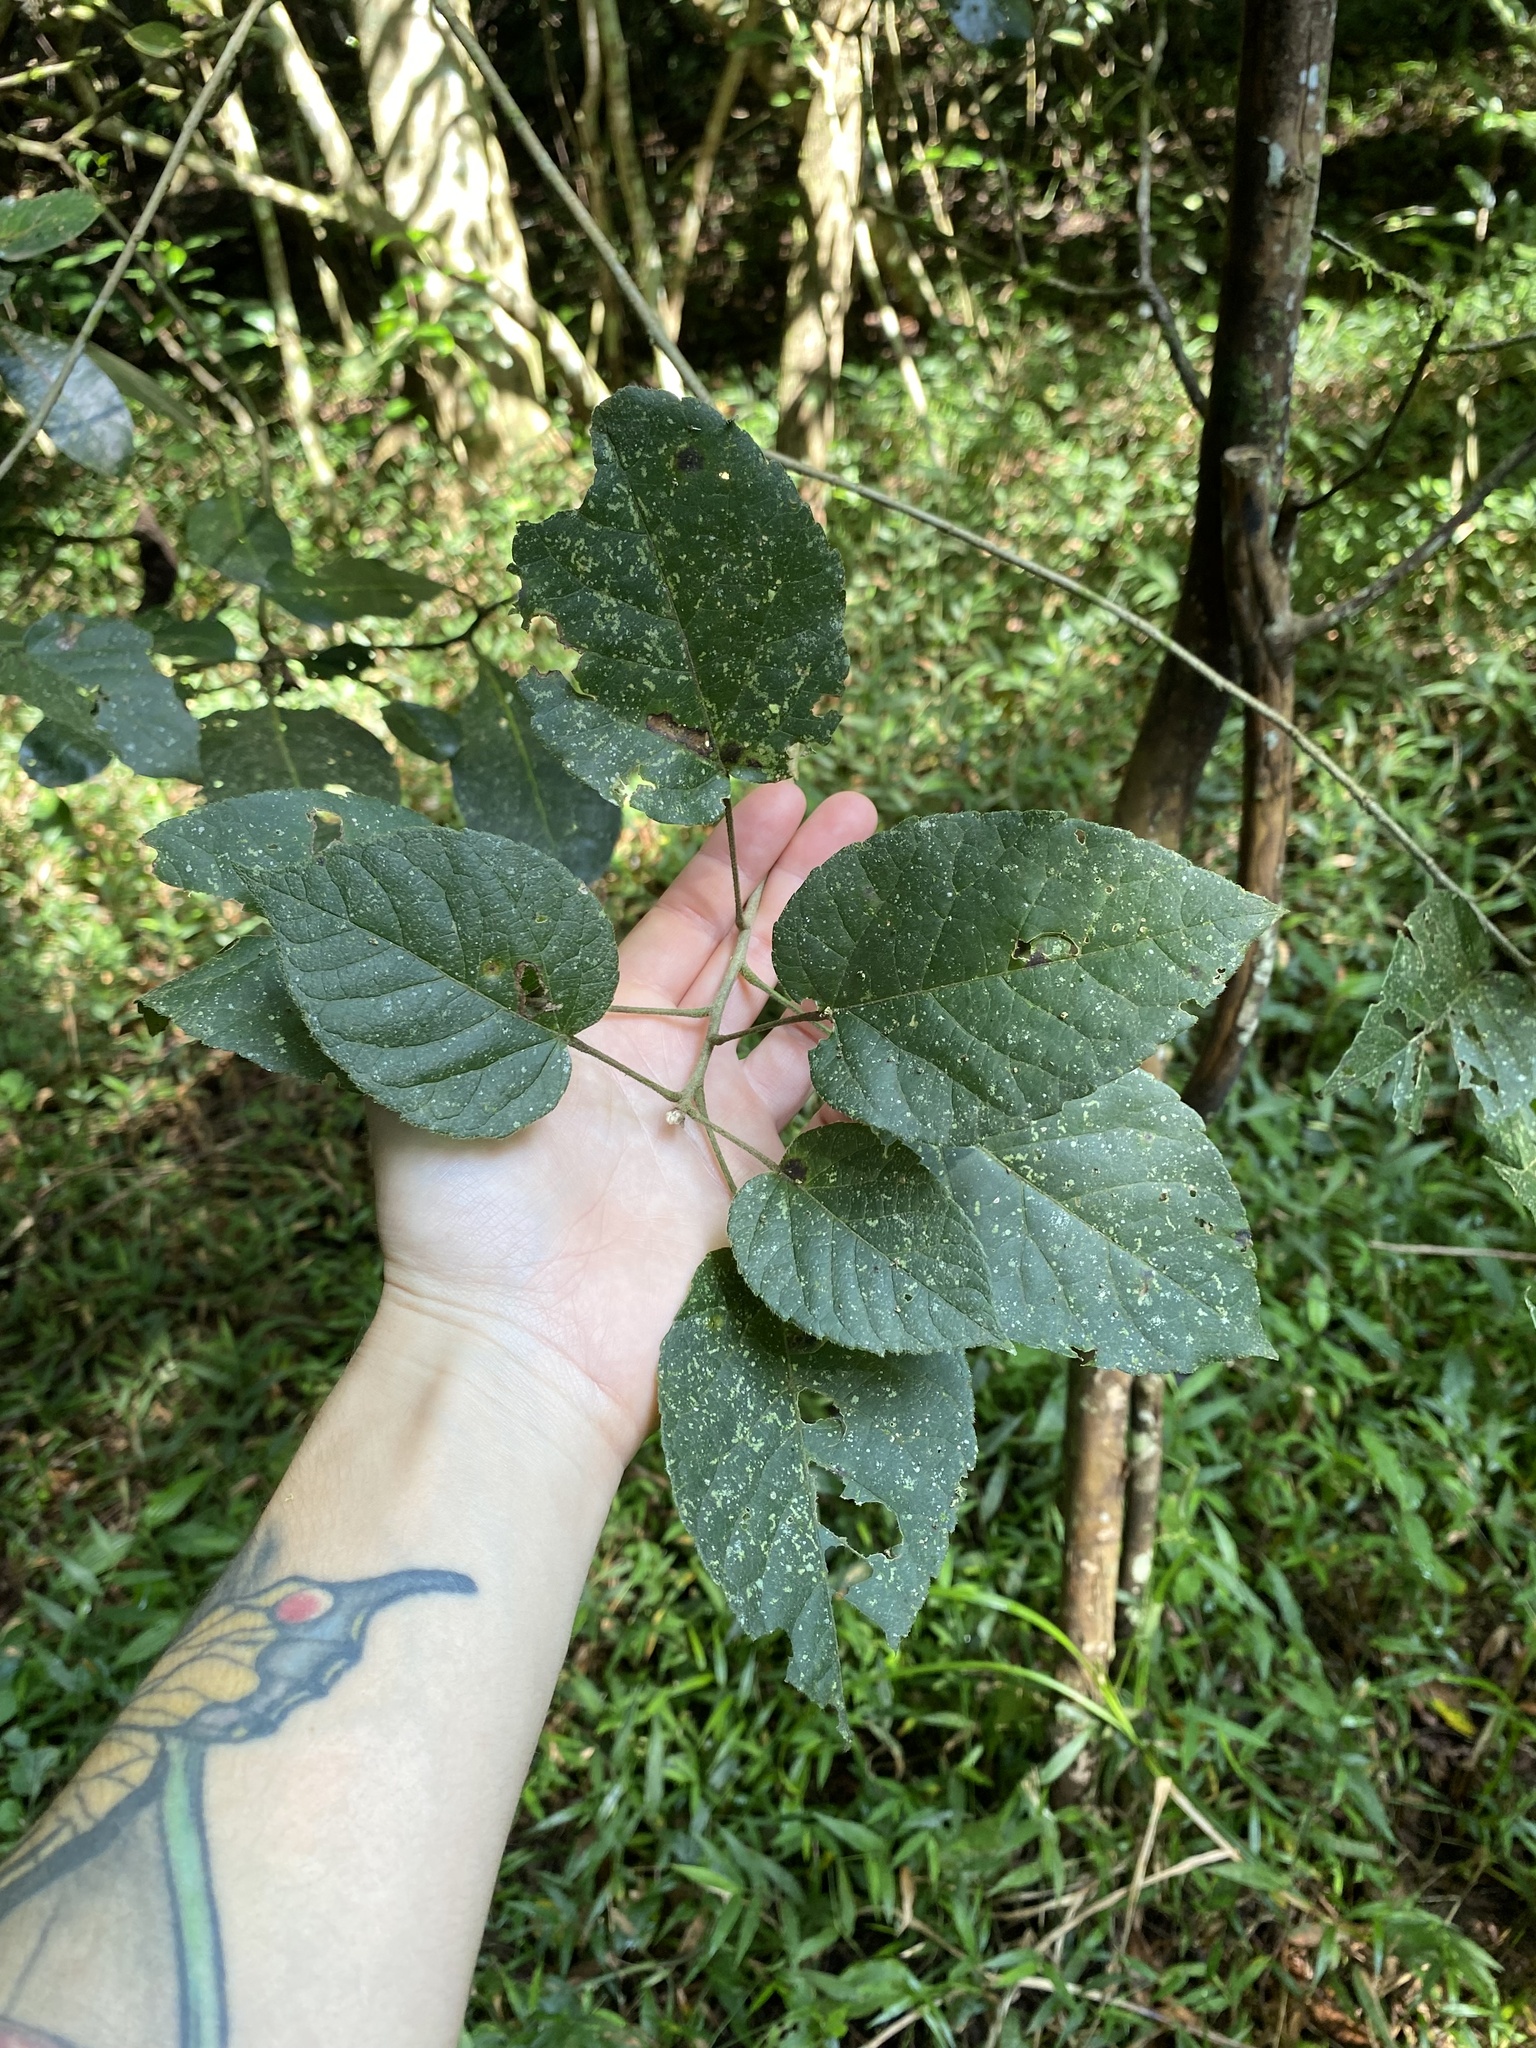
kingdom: Plantae
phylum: Tracheophyta
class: Magnoliopsida
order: Malpighiales
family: Euphorbiaceae
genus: Croton
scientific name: Croton sylvaticus
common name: Forest croton
